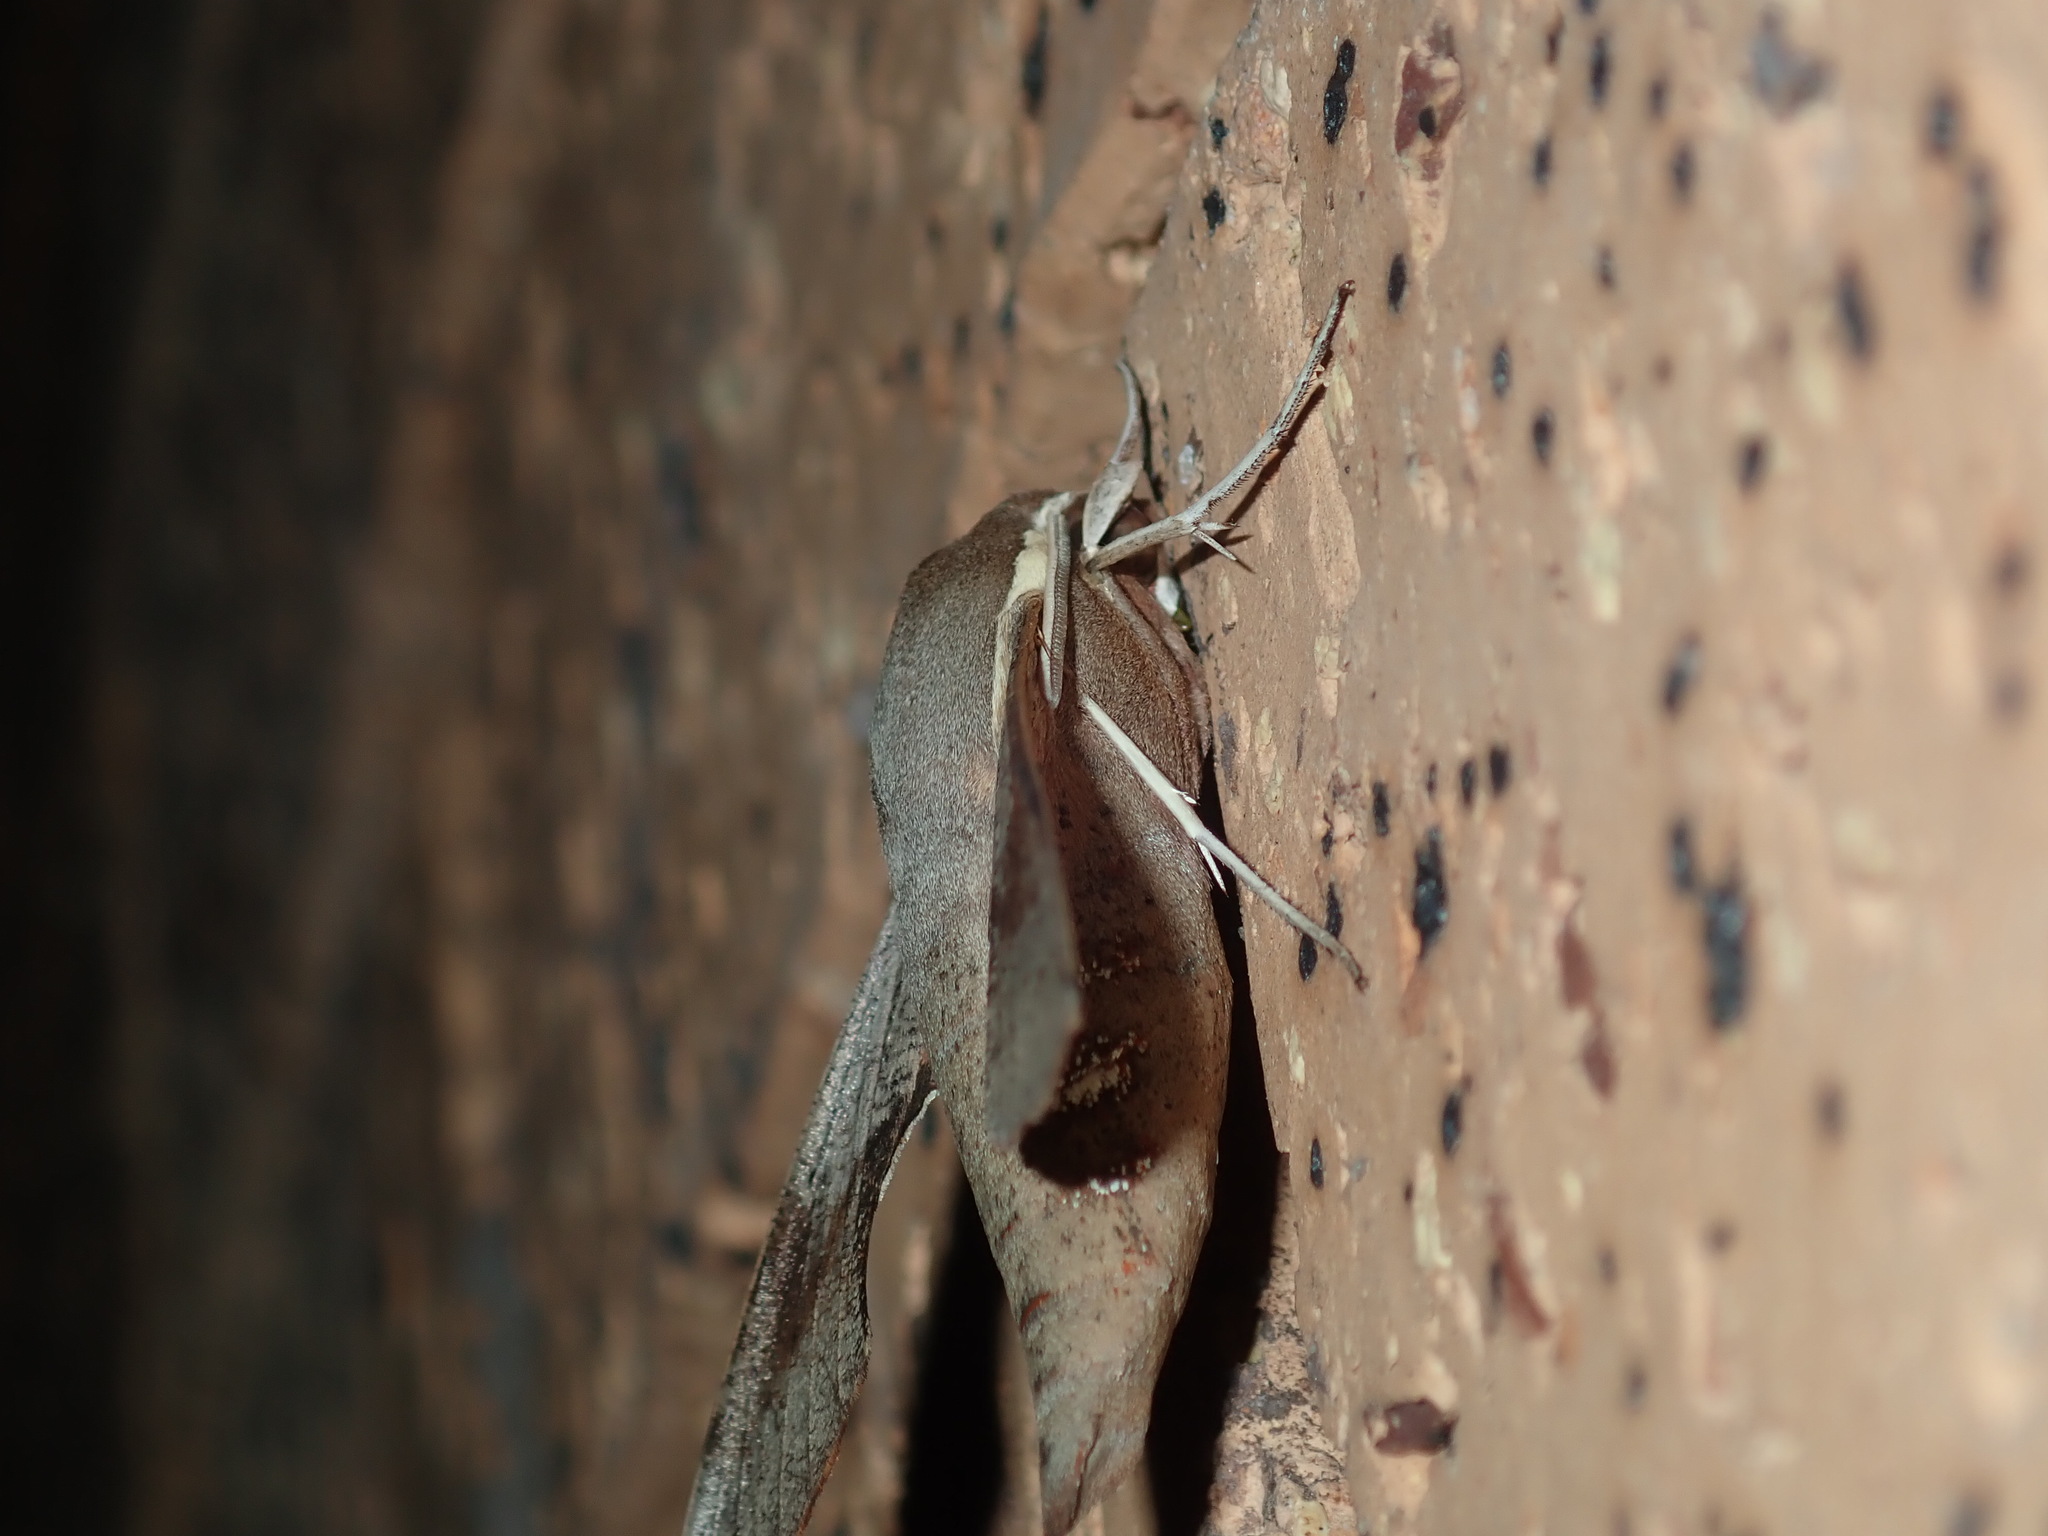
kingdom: Animalia
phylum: Arthropoda
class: Insecta
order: Lepidoptera
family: Sphingidae
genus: Hippotion
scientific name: Hippotion scrofa
